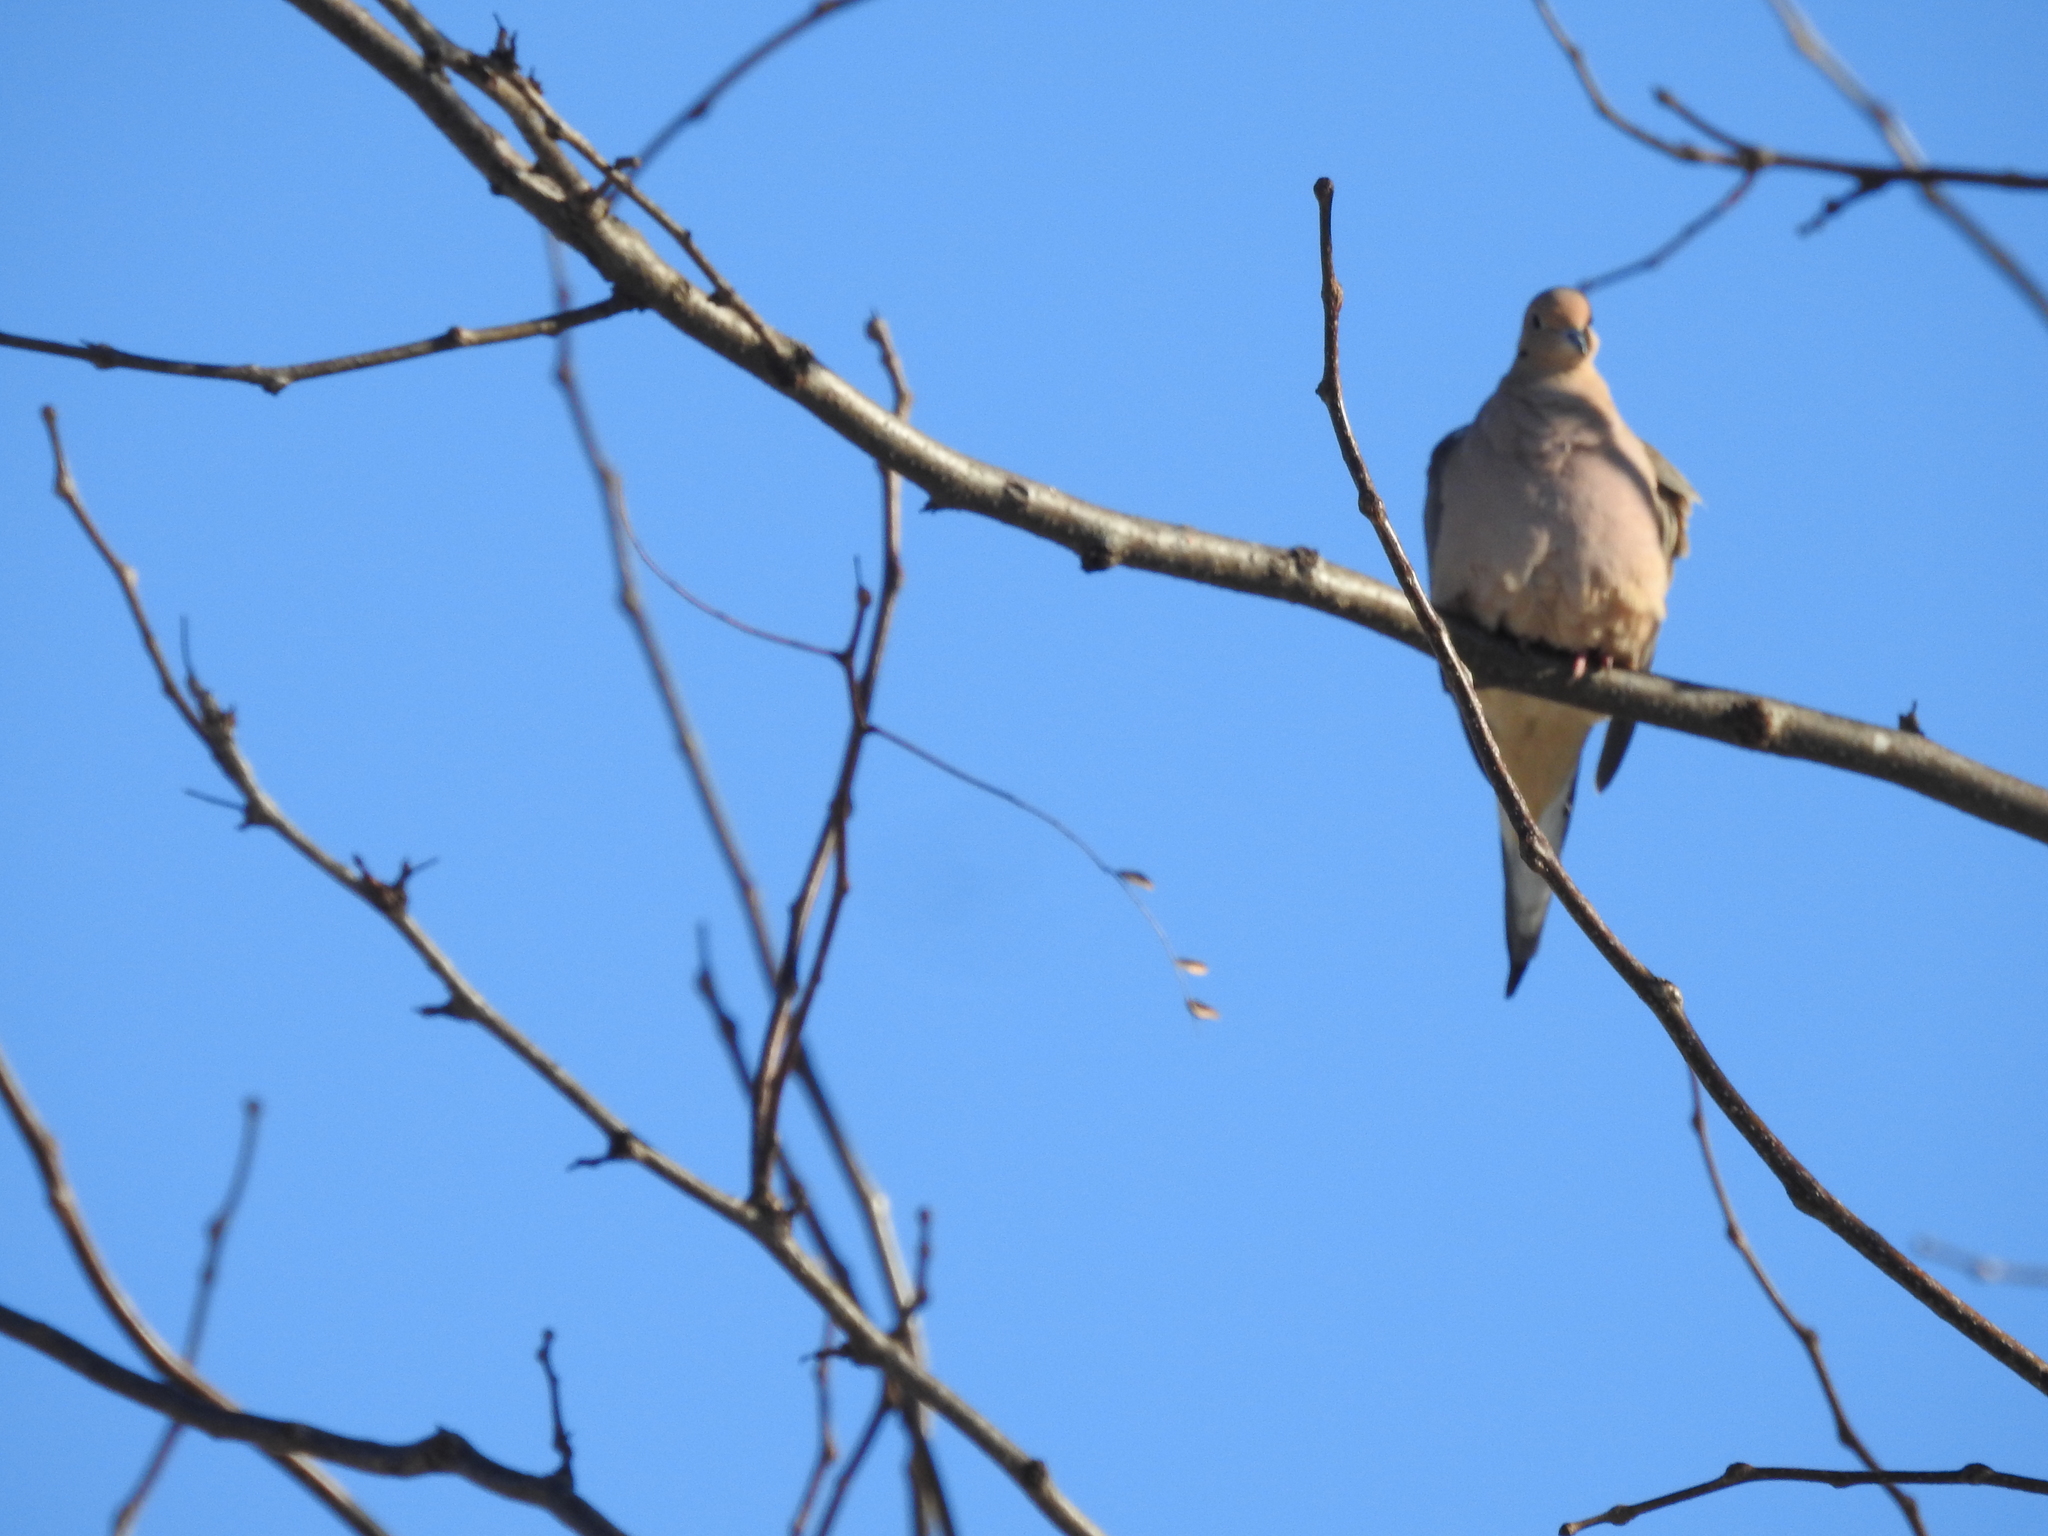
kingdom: Animalia
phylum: Chordata
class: Aves
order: Columbiformes
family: Columbidae
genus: Zenaida
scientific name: Zenaida macroura
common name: Mourning dove
